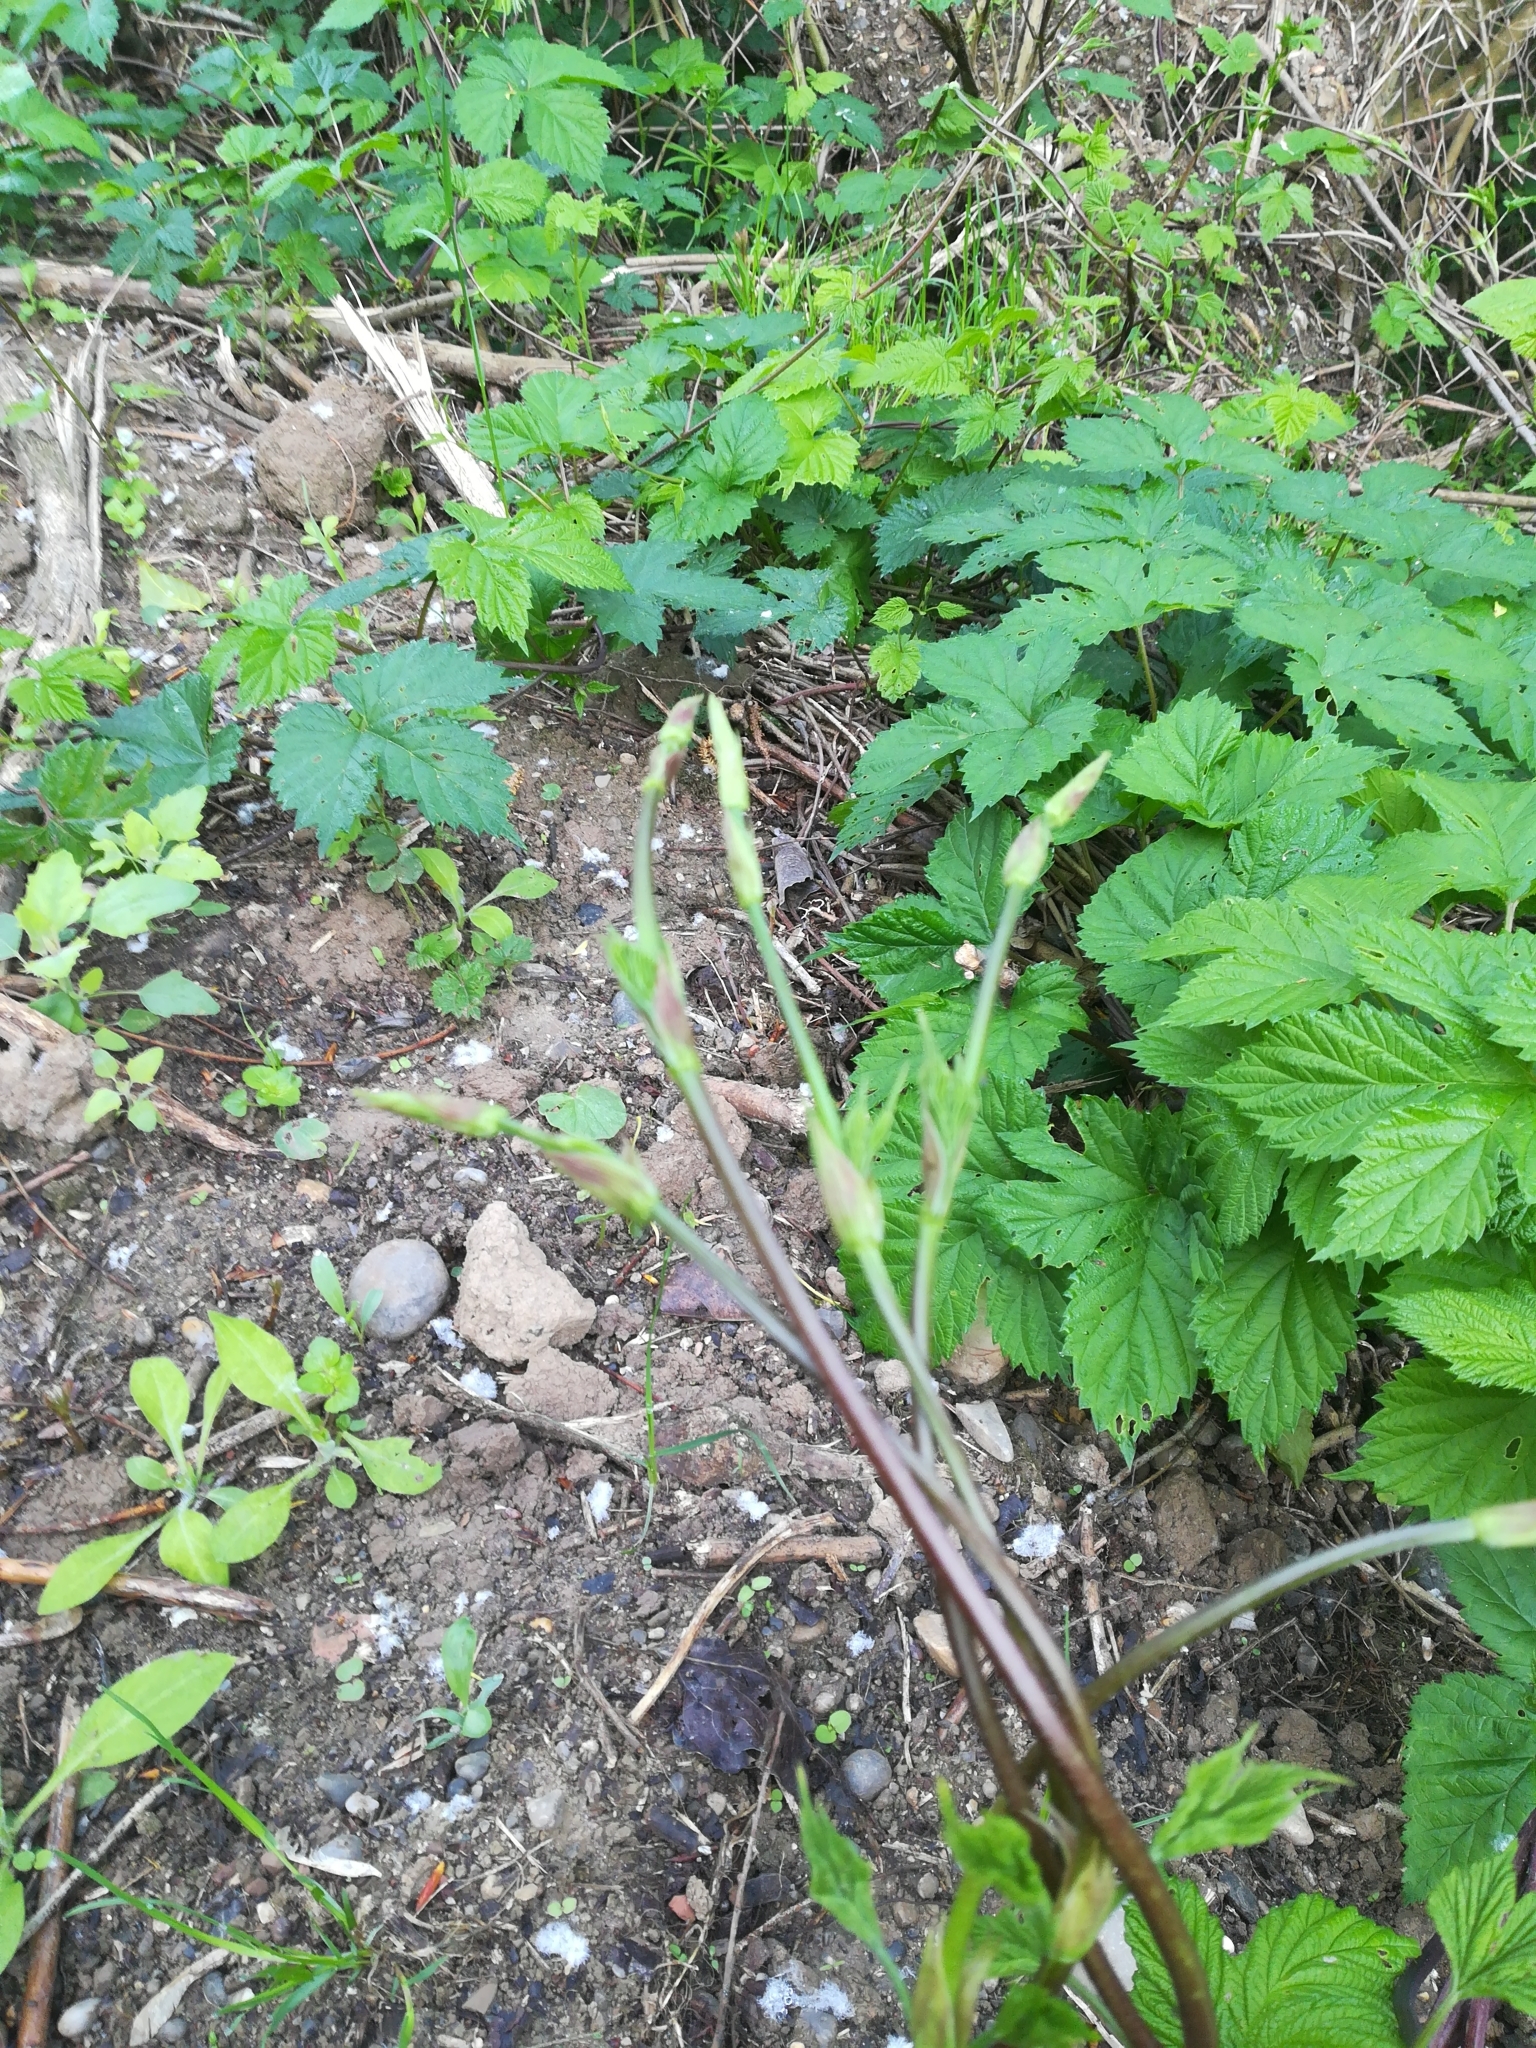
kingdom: Plantae
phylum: Tracheophyta
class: Magnoliopsida
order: Rosales
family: Cannabaceae
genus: Humulus
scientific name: Humulus lupulus
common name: Hop
